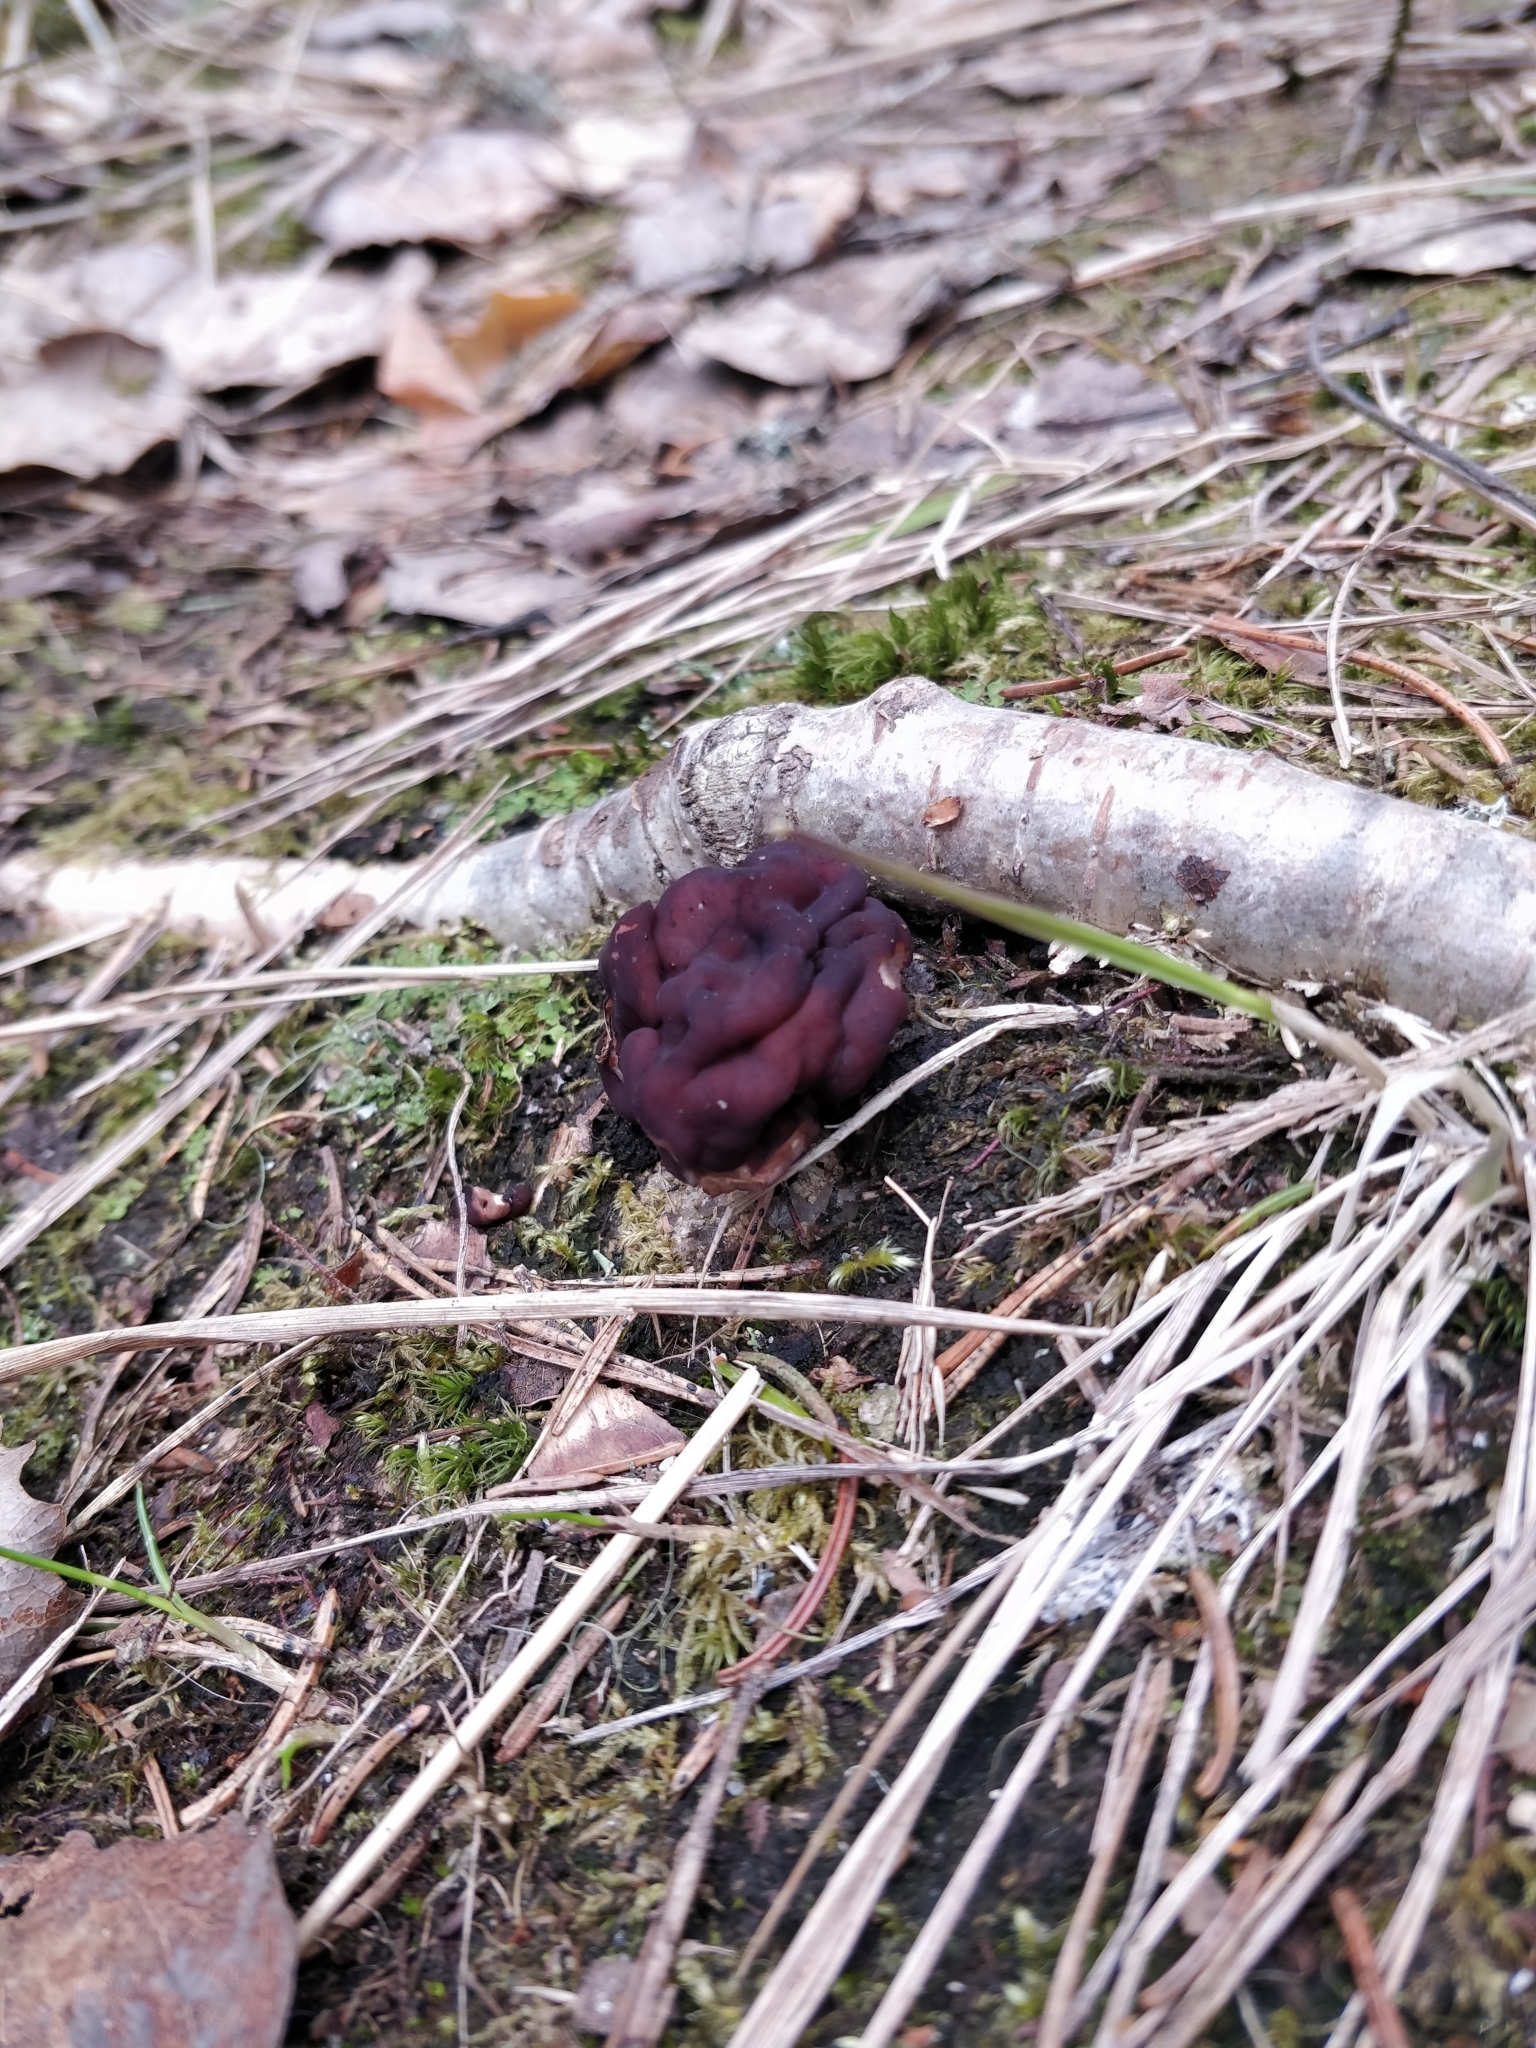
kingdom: Fungi
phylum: Ascomycota
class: Pezizomycetes
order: Pezizales
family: Discinaceae
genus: Gyromitra
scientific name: Gyromitra esculenta
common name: False morel
